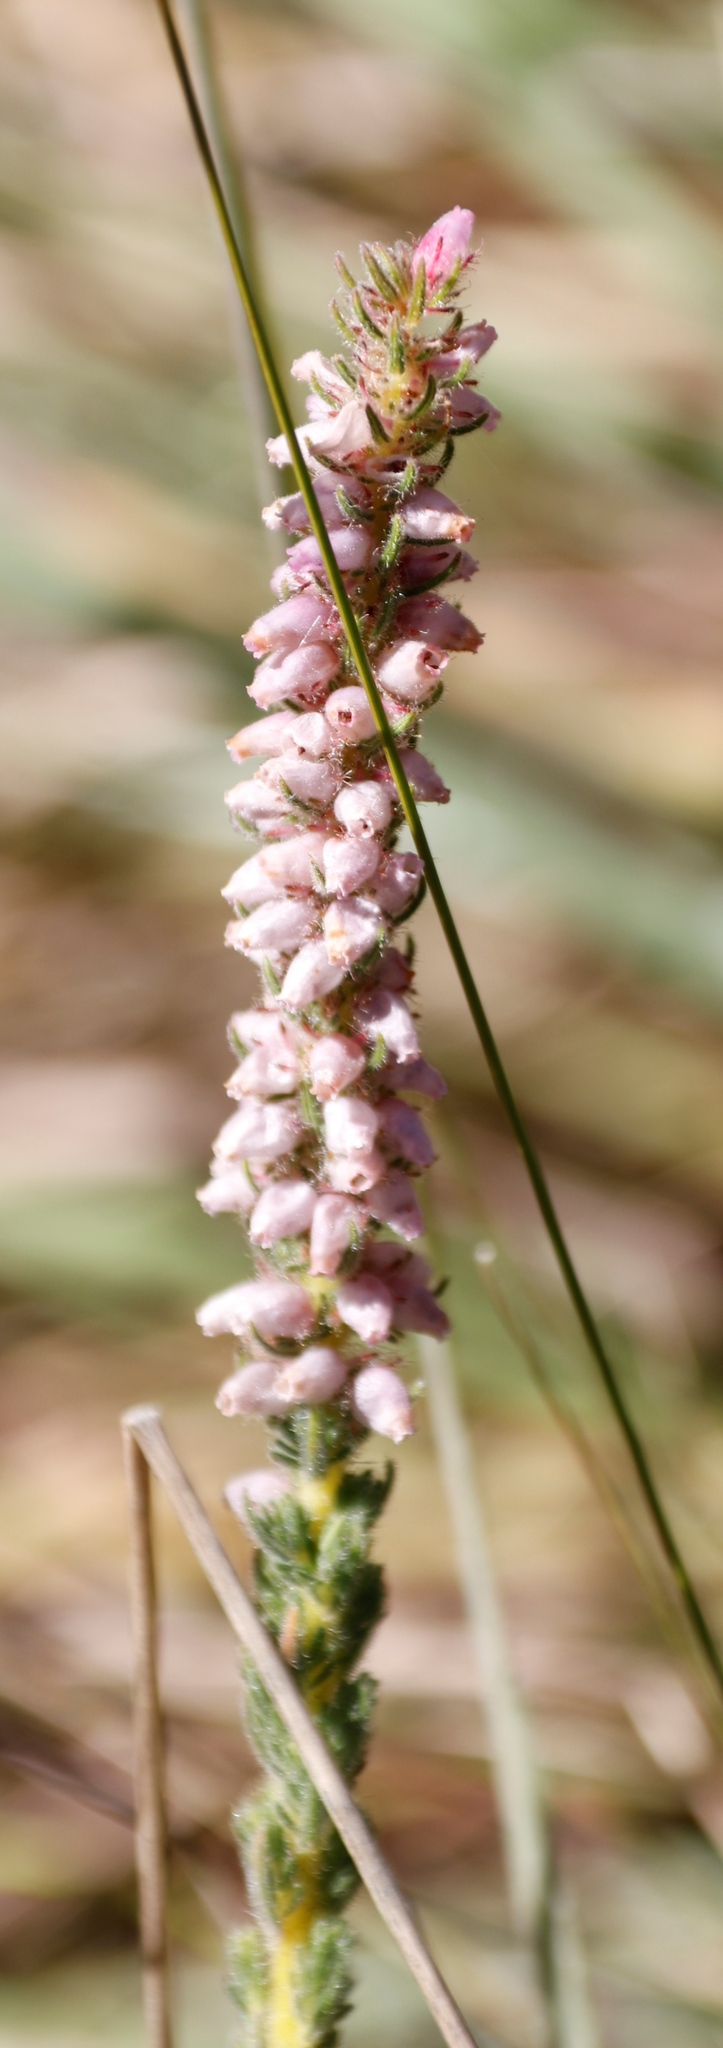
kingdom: Plantae
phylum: Tracheophyta
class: Magnoliopsida
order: Ericales
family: Ericaceae
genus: Erica
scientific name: Erica alopecurus
